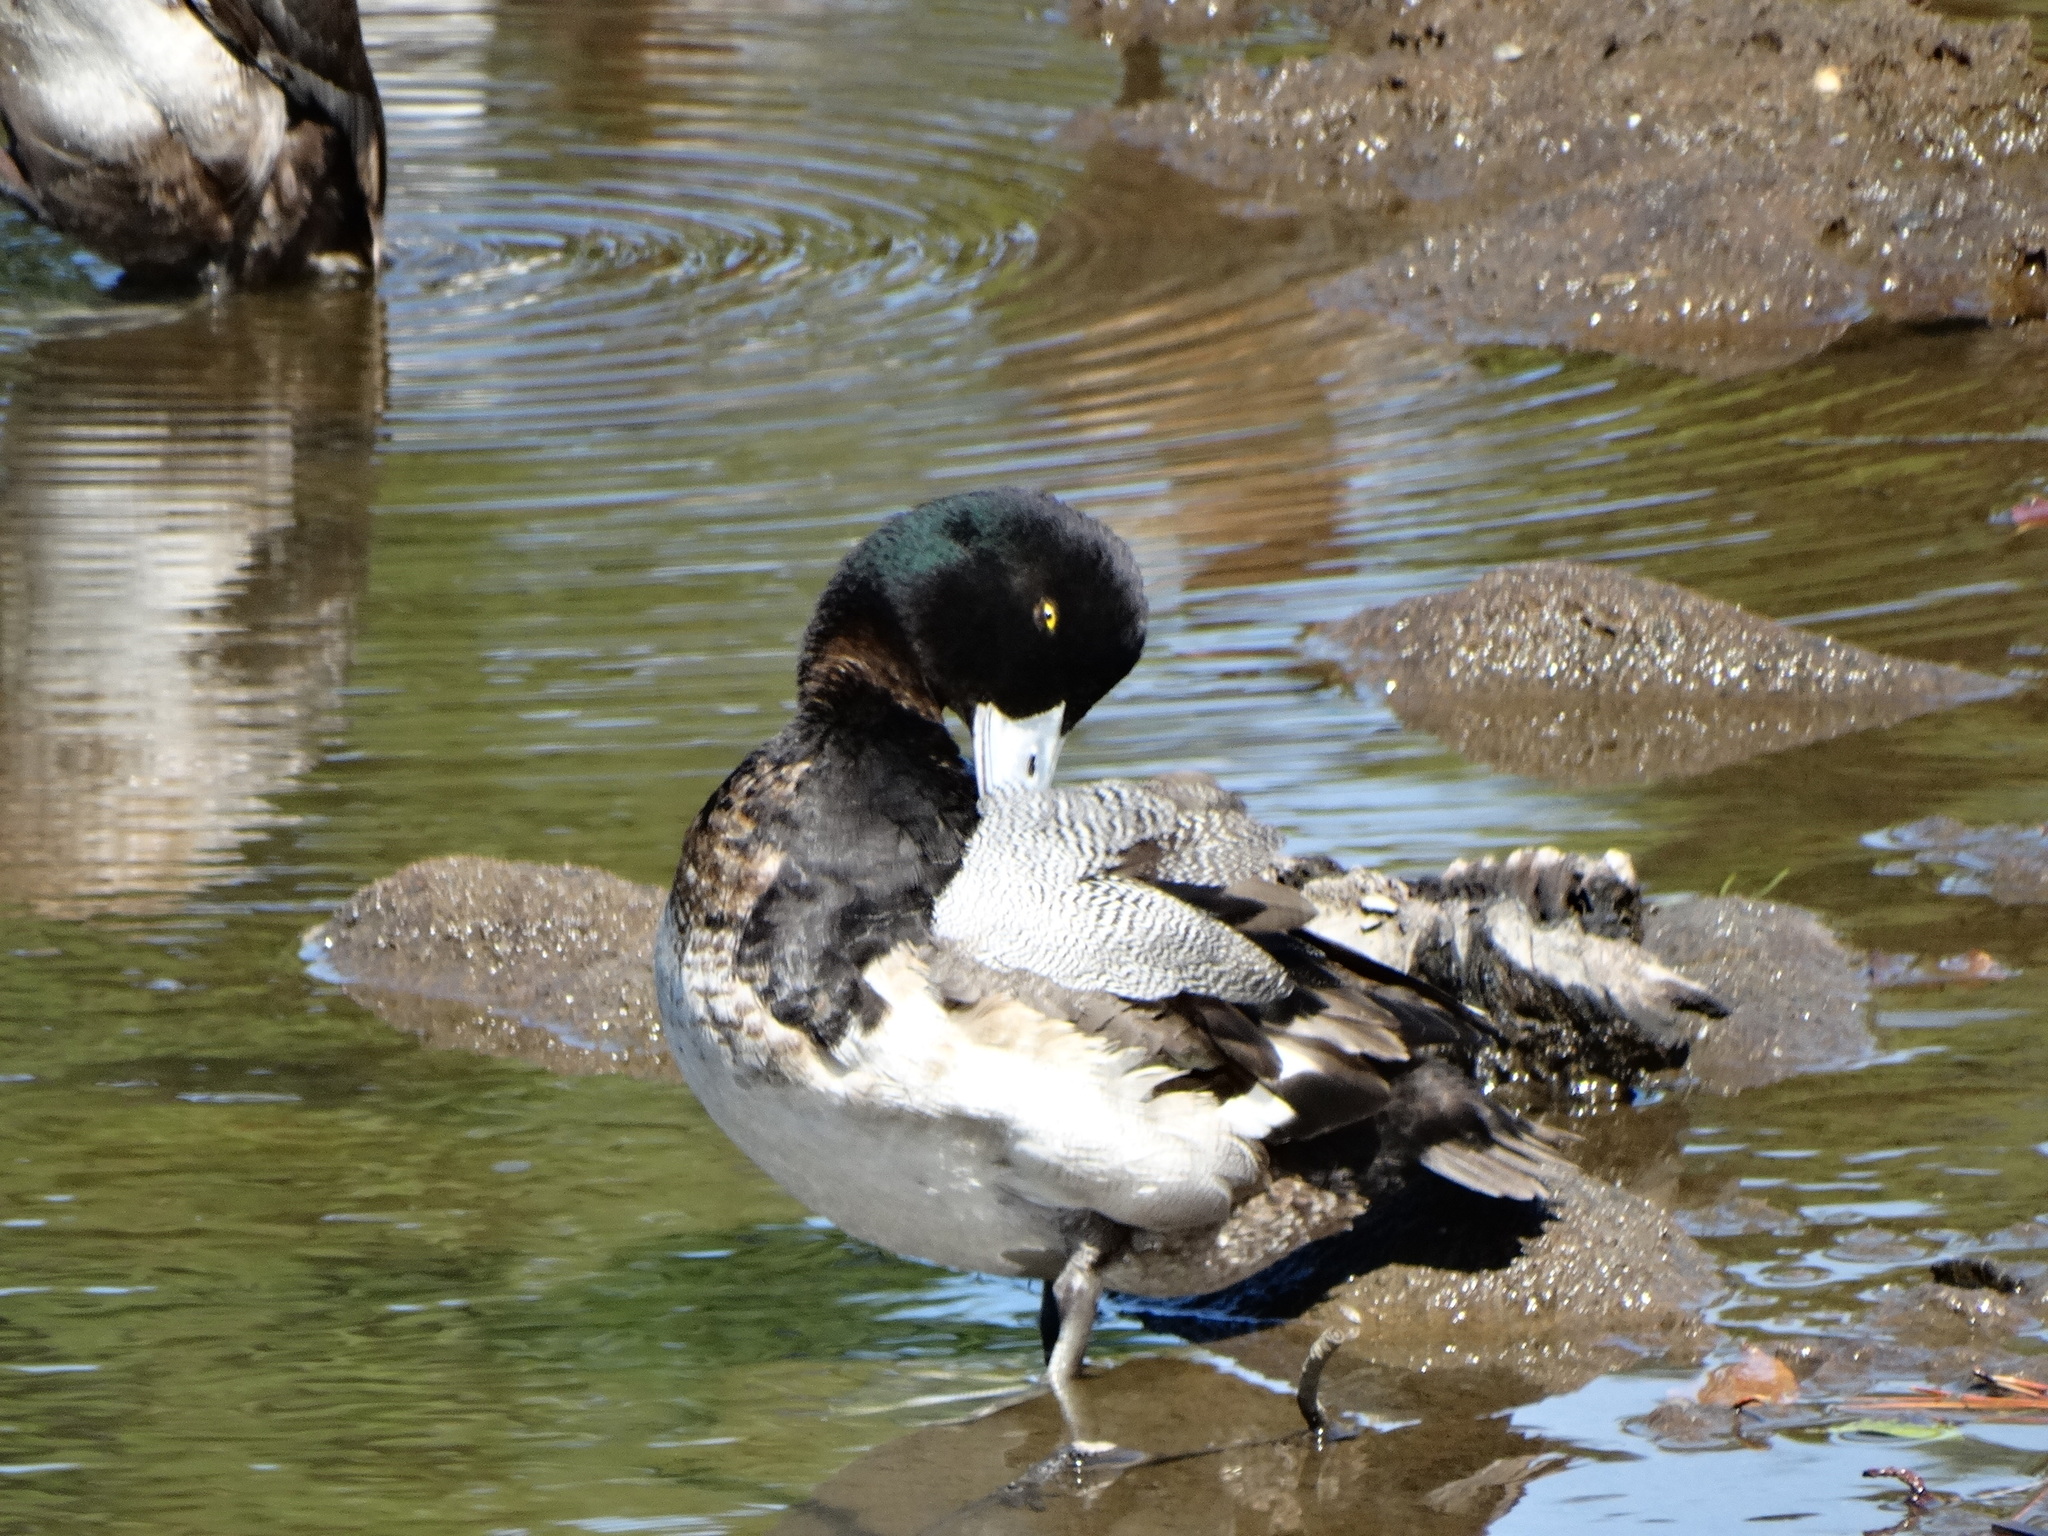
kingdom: Animalia
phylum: Chordata
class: Aves
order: Anseriformes
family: Anatidae
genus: Aythya
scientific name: Aythya marila
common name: Greater scaup
